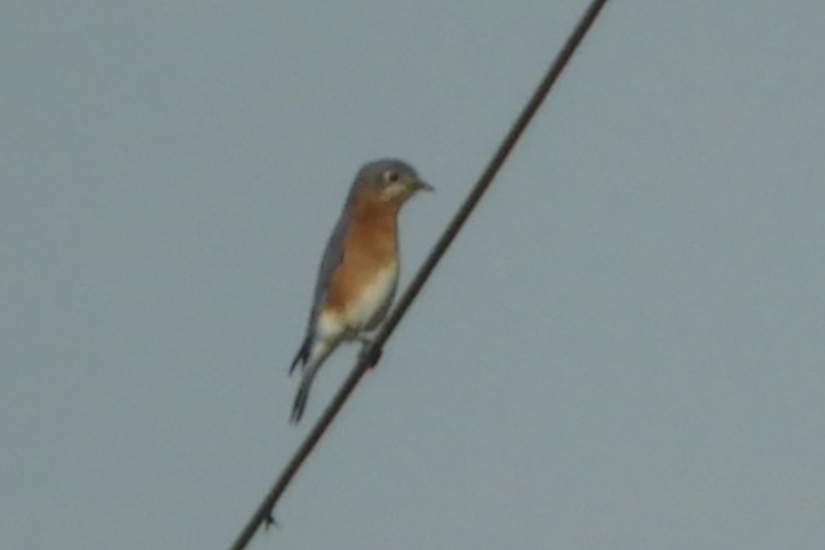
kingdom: Animalia
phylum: Chordata
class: Aves
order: Passeriformes
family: Turdidae
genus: Sialia
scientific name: Sialia sialis
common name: Eastern bluebird
